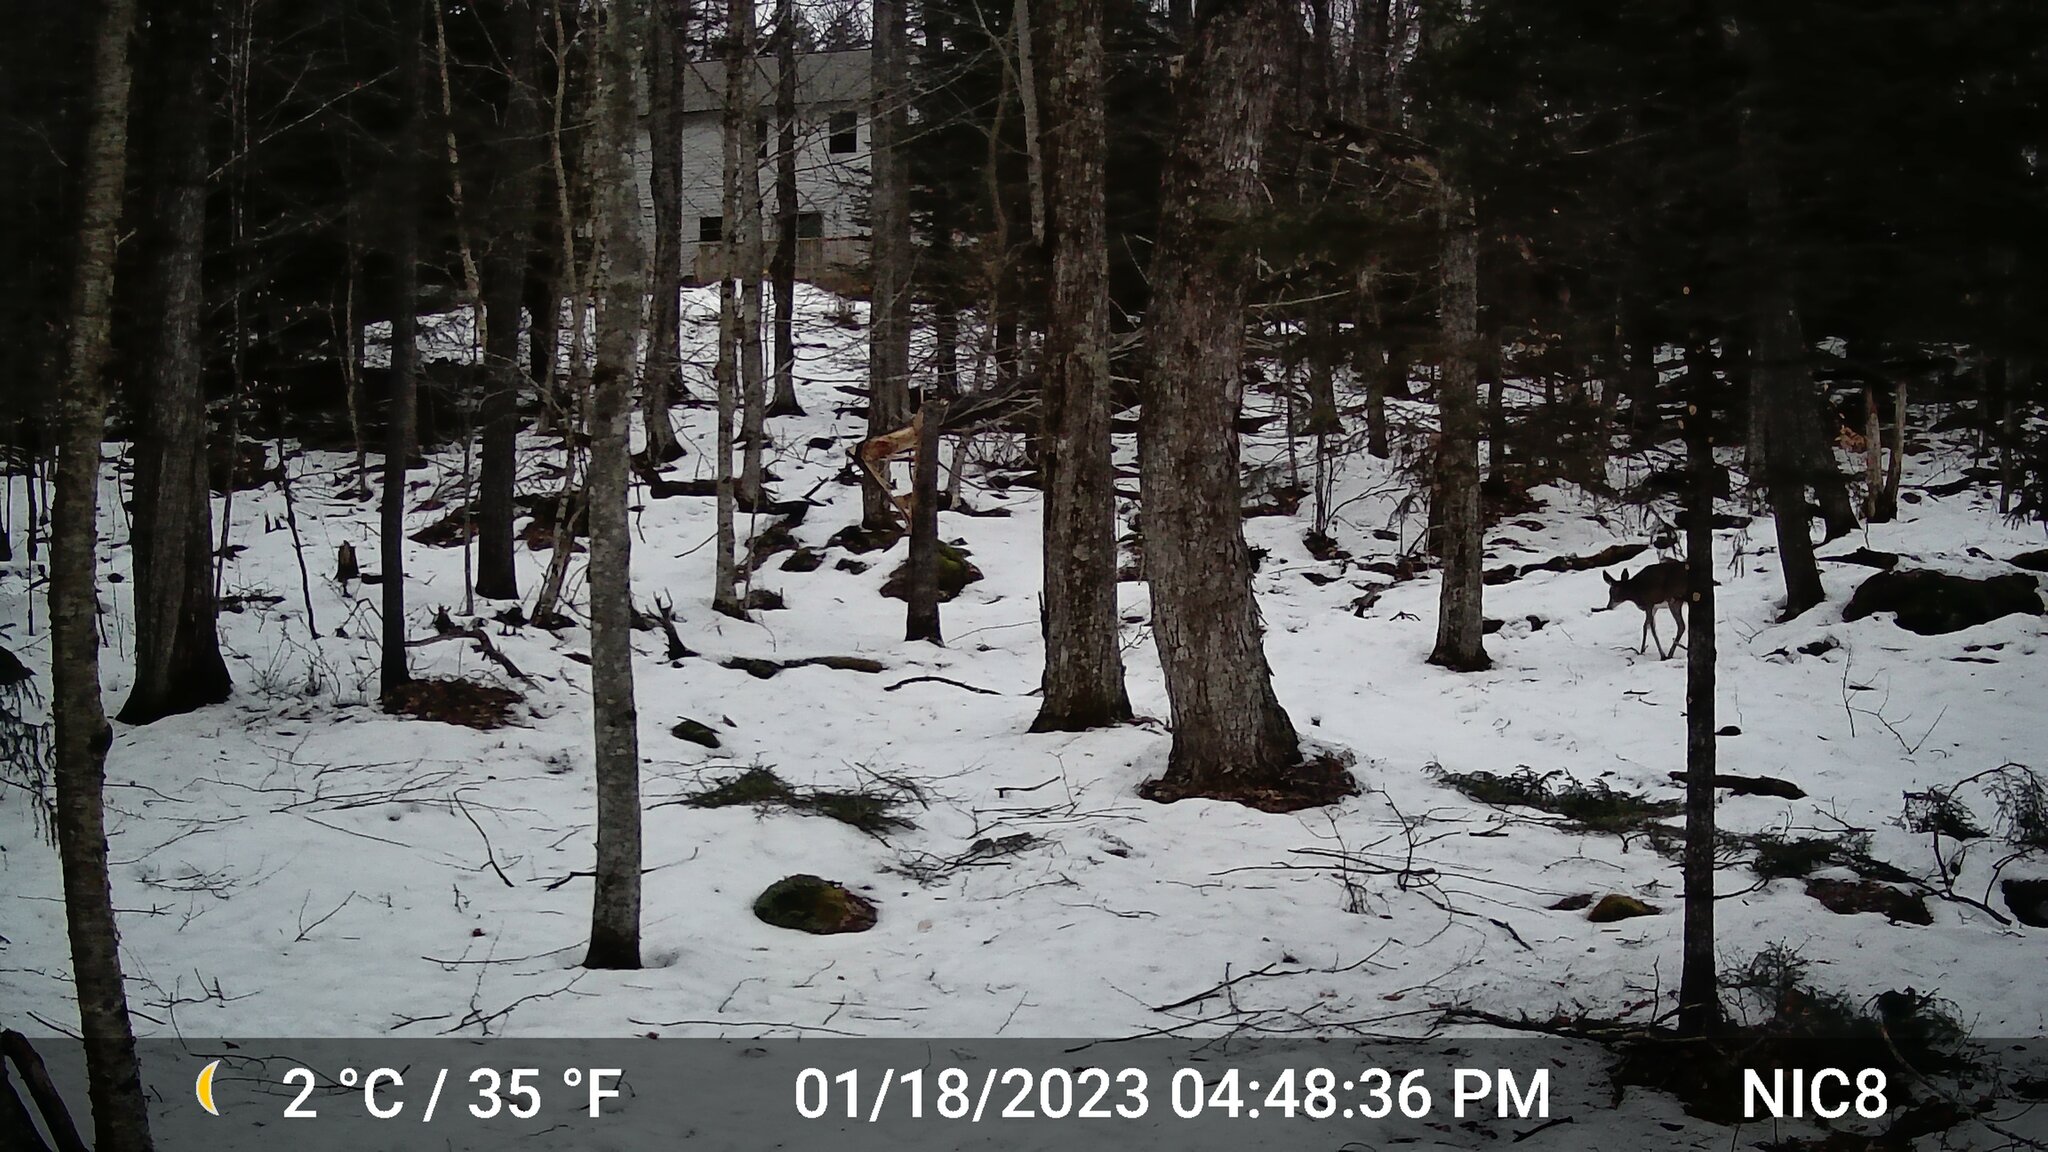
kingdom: Animalia
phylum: Chordata
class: Mammalia
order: Artiodactyla
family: Cervidae
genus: Odocoileus
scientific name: Odocoileus virginianus
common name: White-tailed deer
